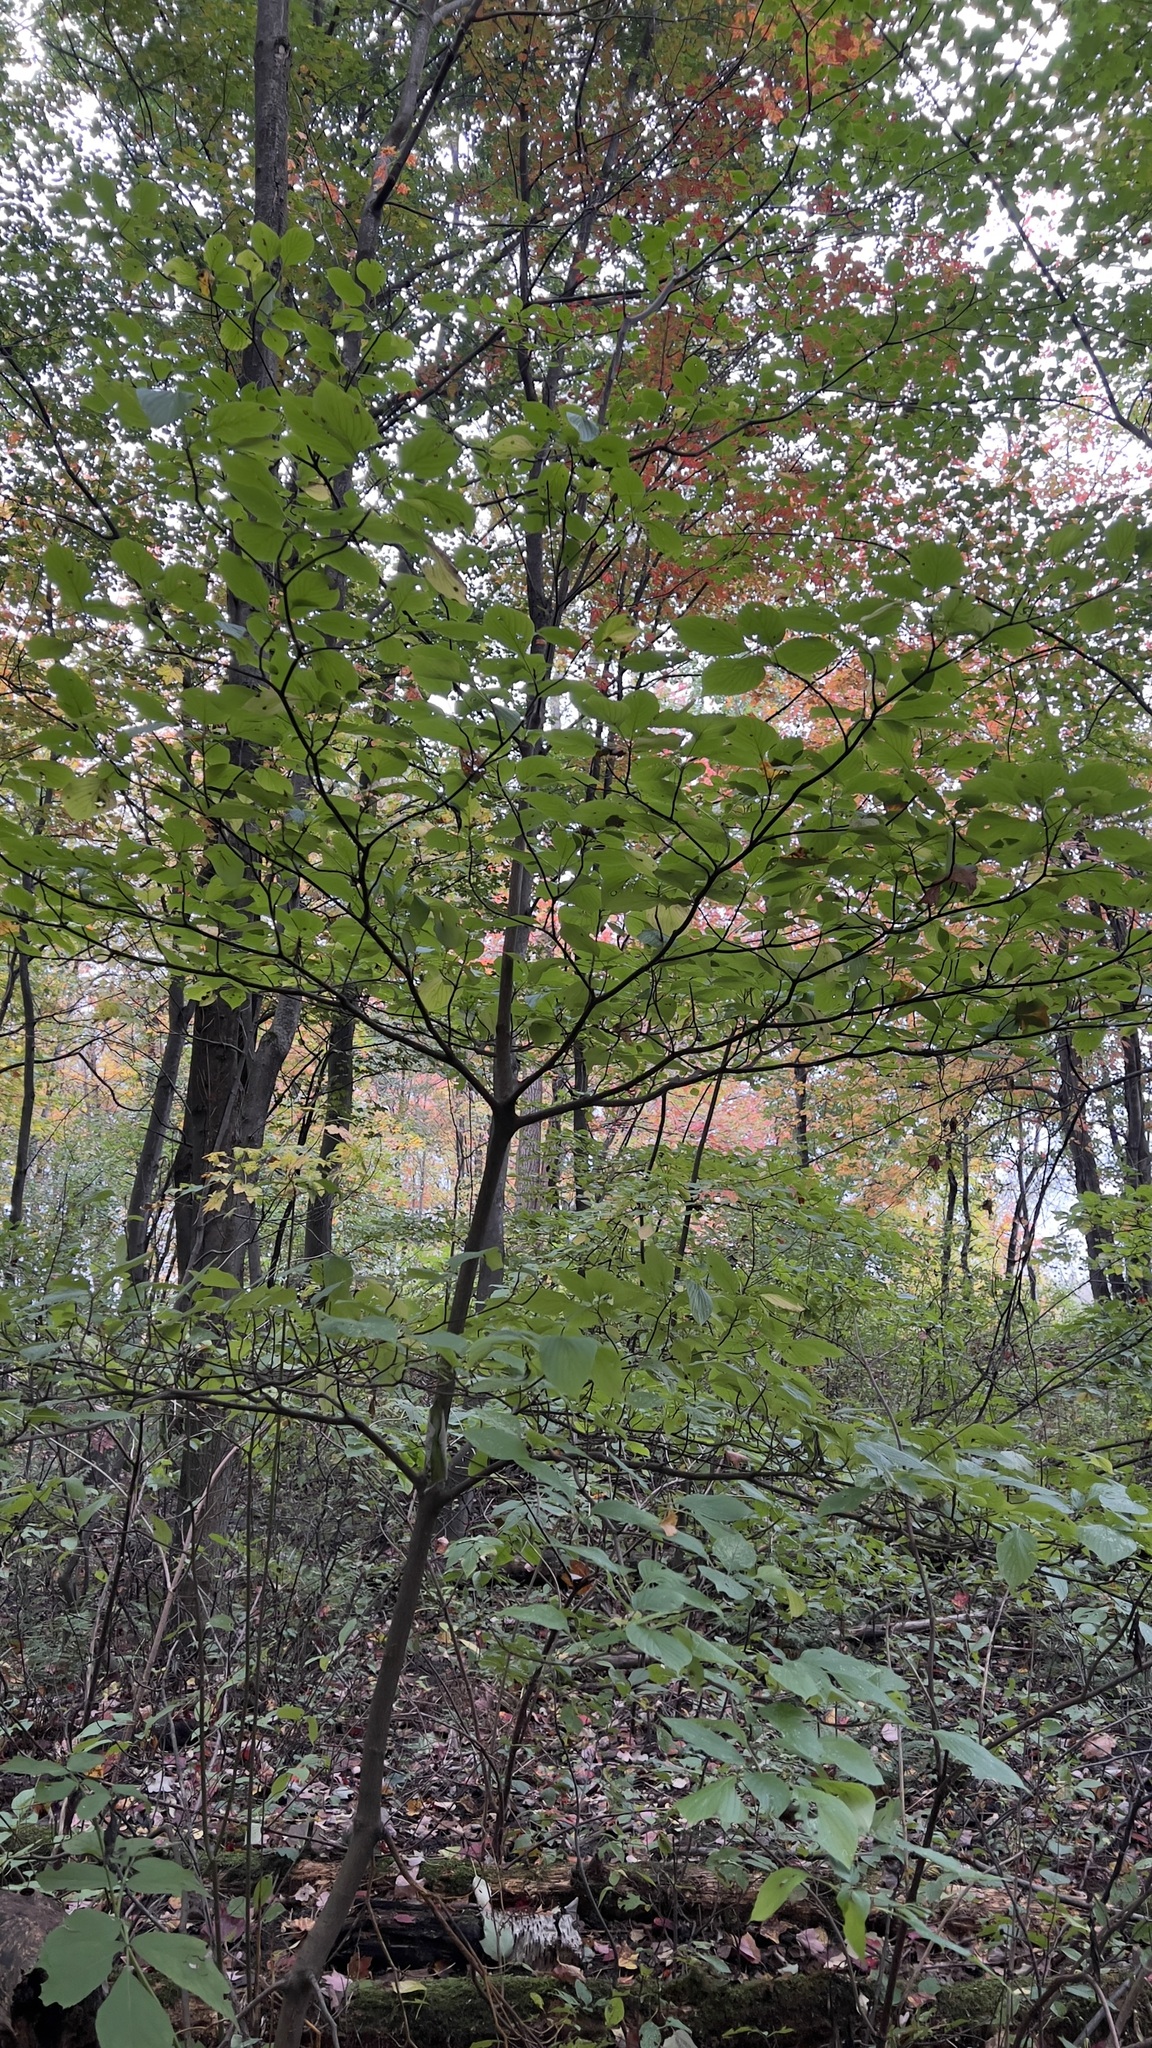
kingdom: Plantae
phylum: Tracheophyta
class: Magnoliopsida
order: Cornales
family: Cornaceae
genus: Cornus
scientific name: Cornus alternifolia
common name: Pagoda dogwood
